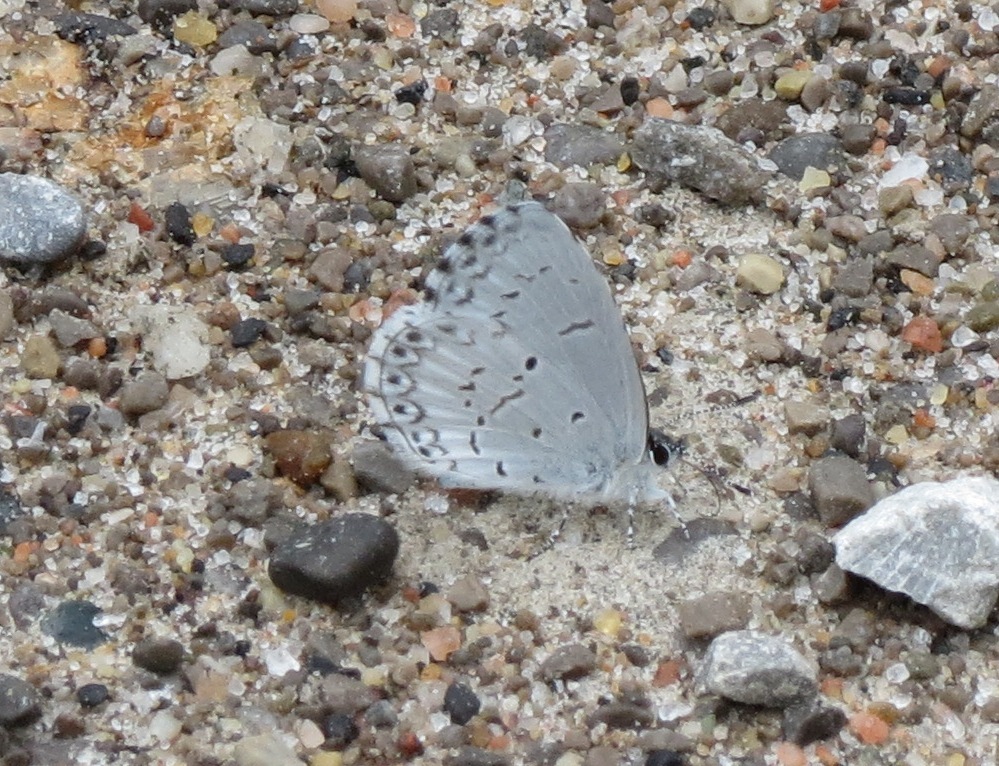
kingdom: Animalia
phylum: Arthropoda
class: Insecta
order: Lepidoptera
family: Lycaenidae
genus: Celastrina
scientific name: Celastrina lucia
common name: Lucia azure
